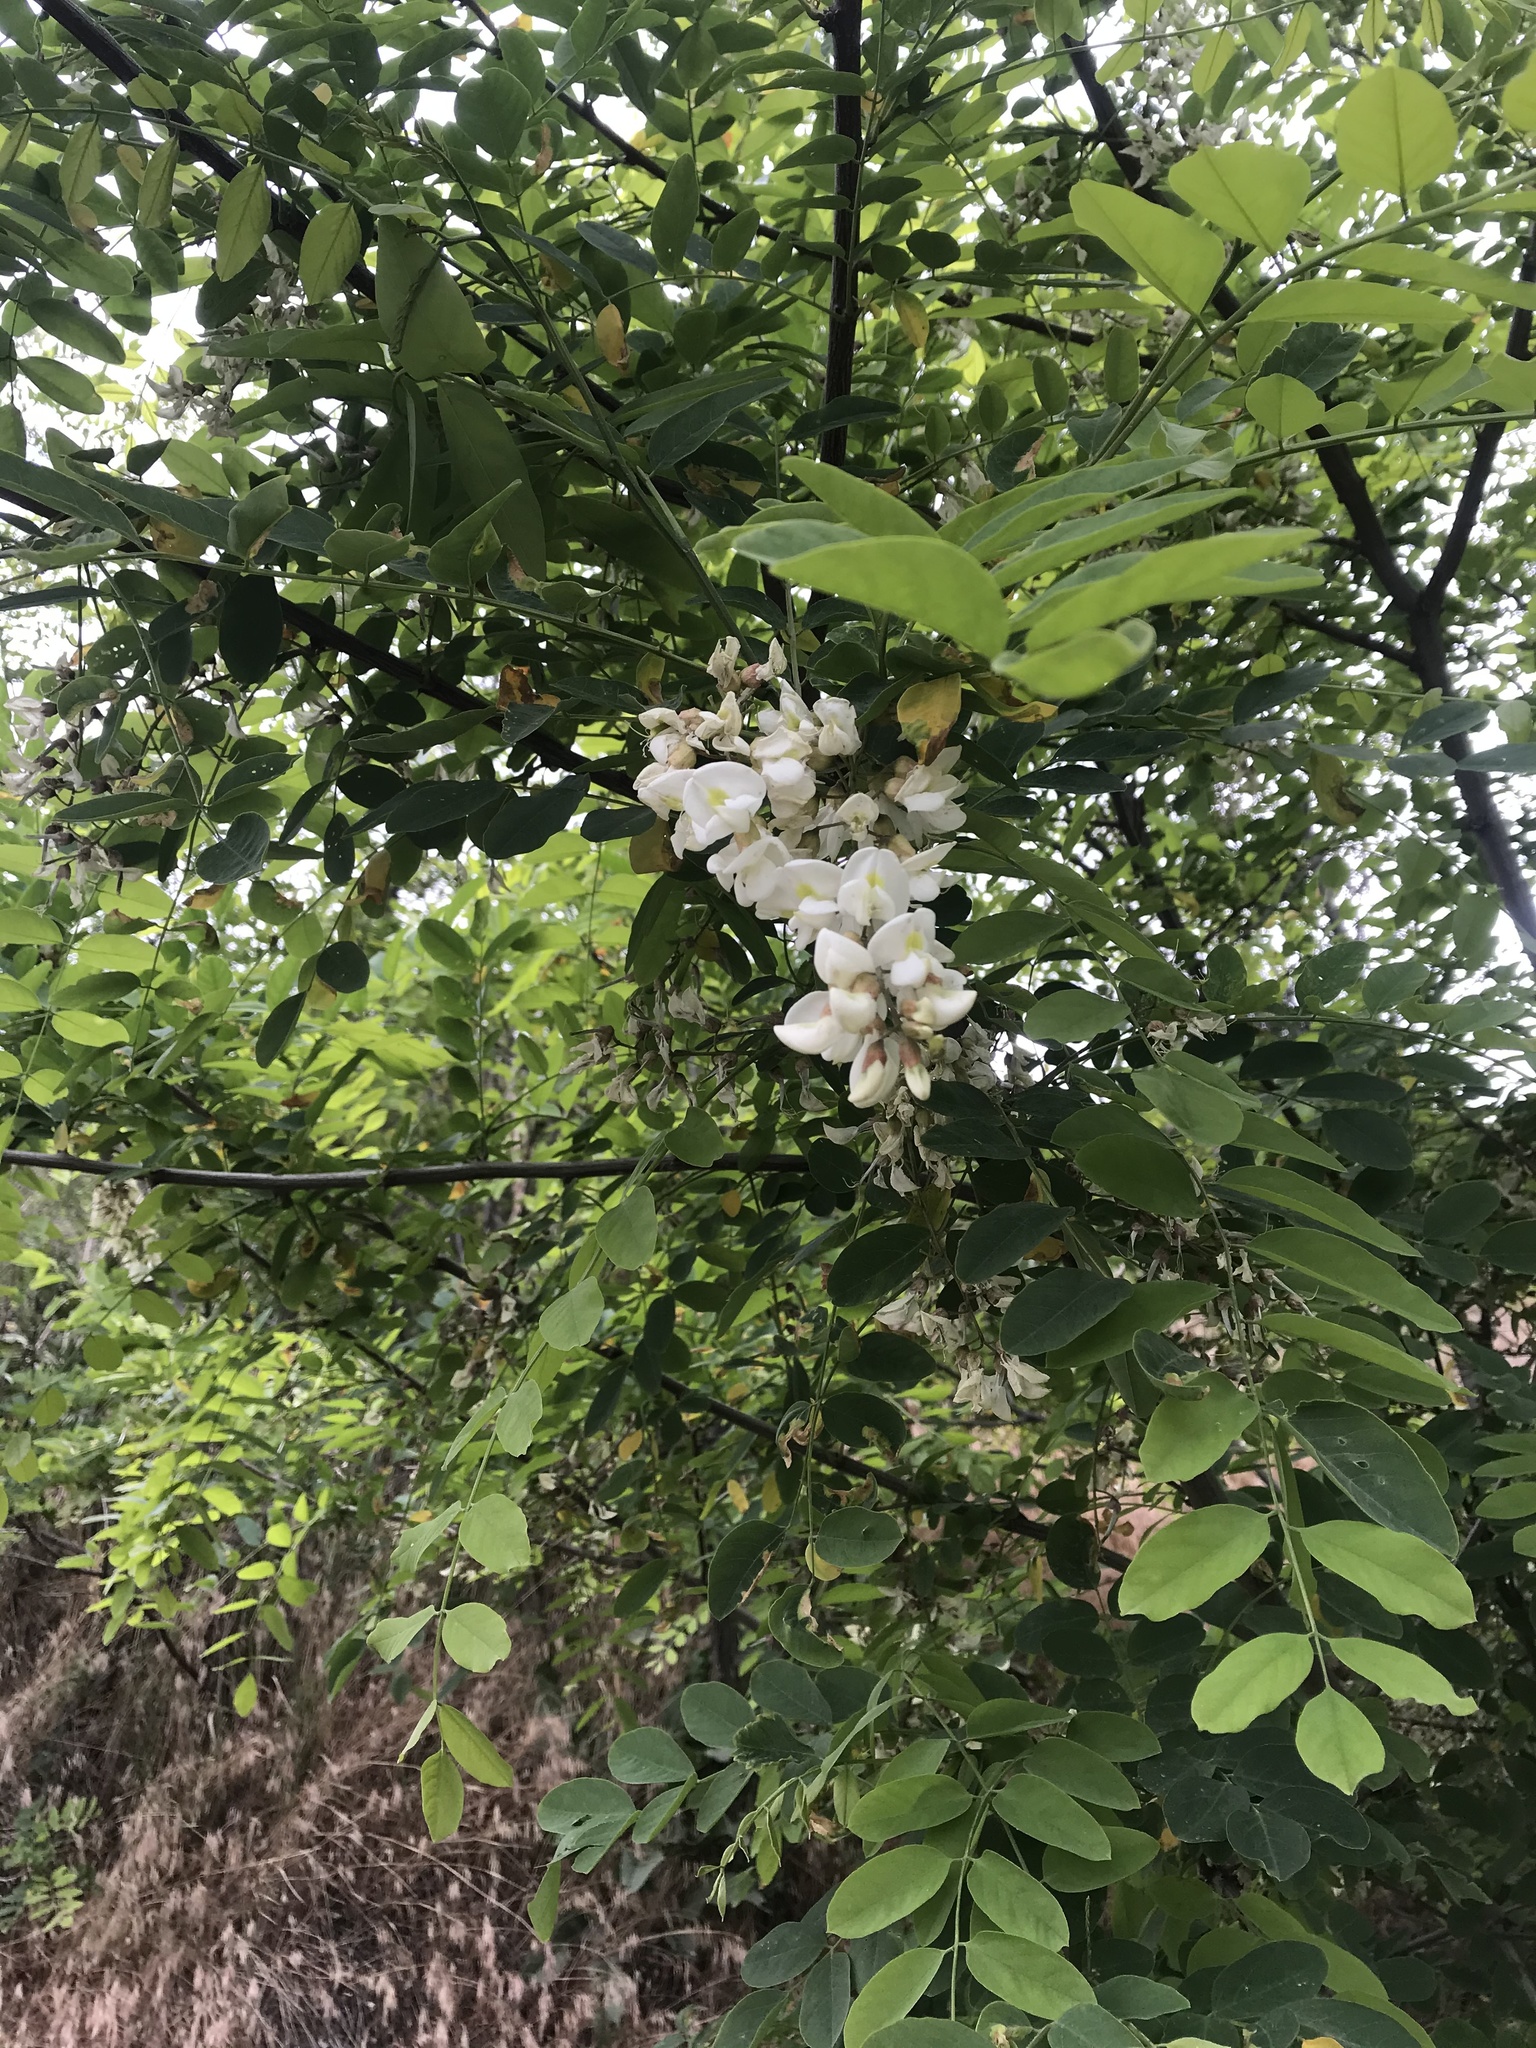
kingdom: Plantae
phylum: Tracheophyta
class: Magnoliopsida
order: Fabales
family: Fabaceae
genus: Robinia
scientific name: Robinia pseudoacacia
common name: Black locust
